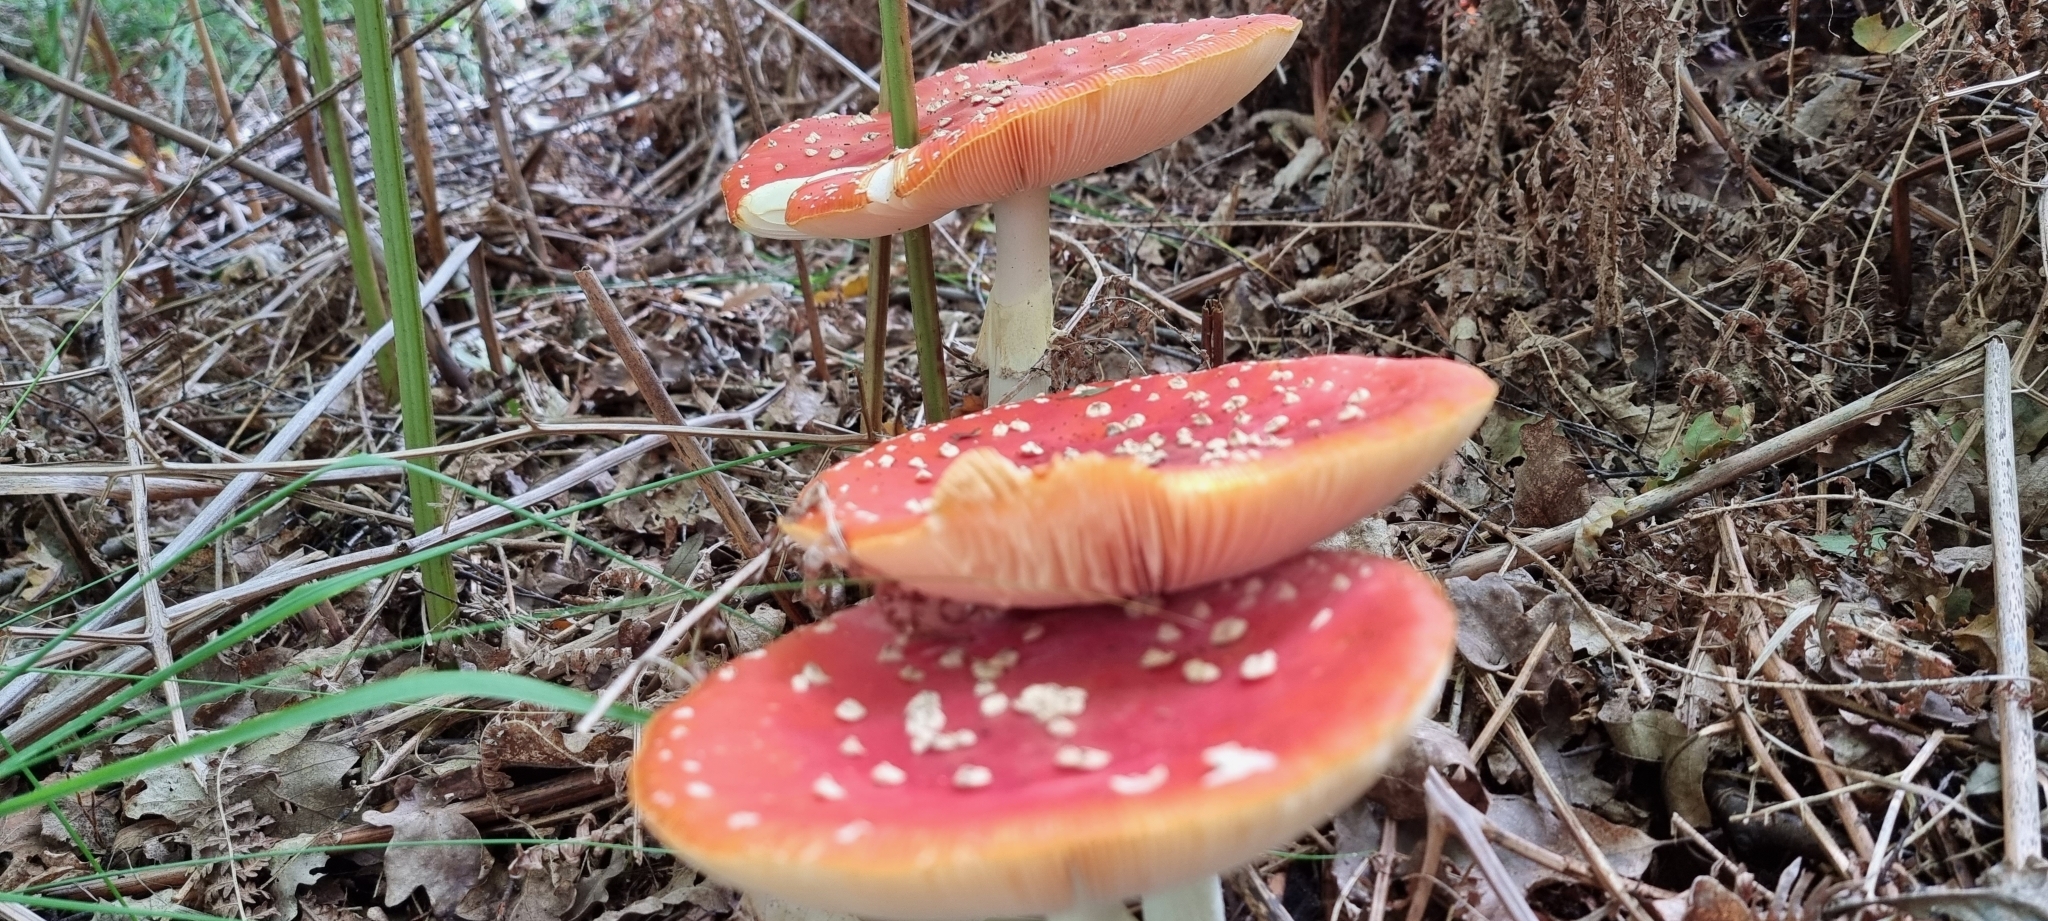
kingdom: Fungi
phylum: Basidiomycota
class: Agaricomycetes
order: Agaricales
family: Amanitaceae
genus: Amanita
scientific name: Amanita muscaria
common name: Fly agaric
